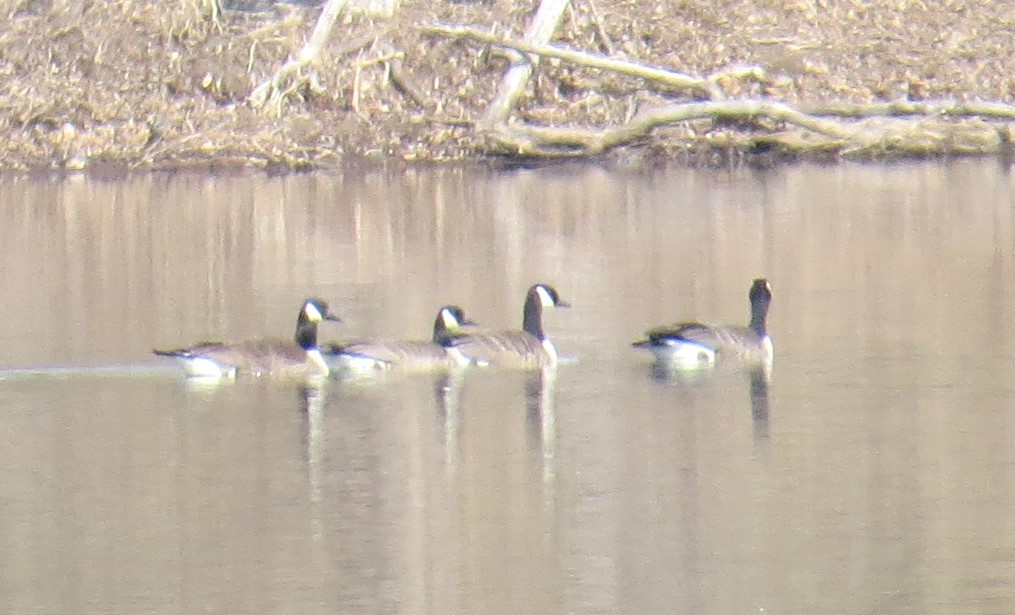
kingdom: Animalia
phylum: Chordata
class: Aves
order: Anseriformes
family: Anatidae
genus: Branta
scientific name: Branta canadensis
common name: Canada goose
